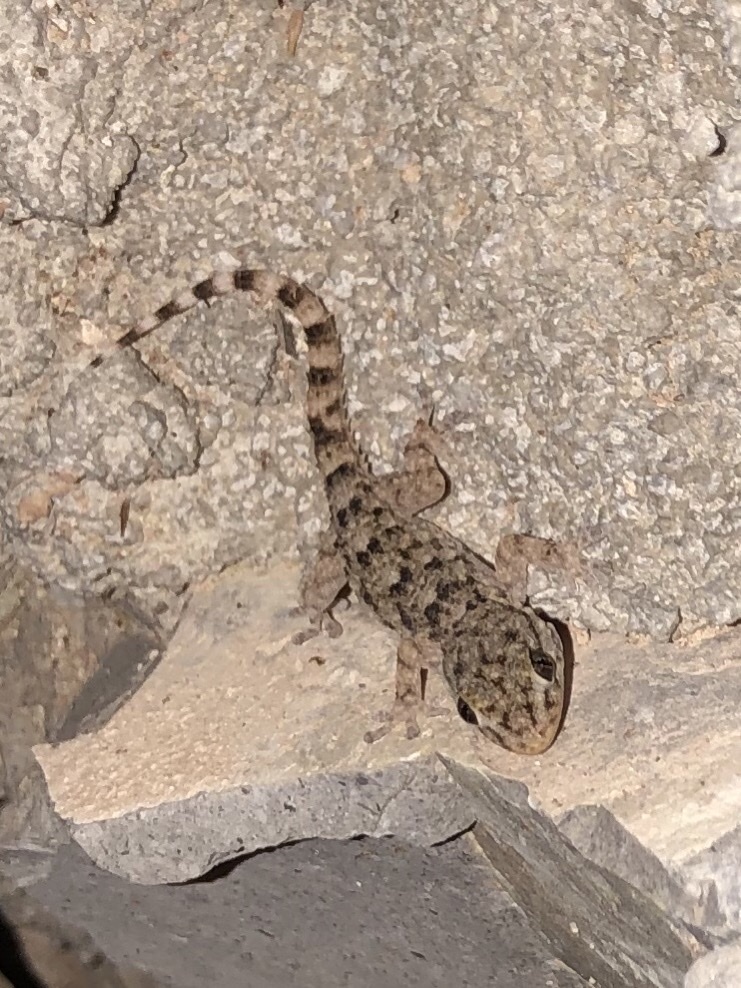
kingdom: Animalia
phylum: Chordata
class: Squamata
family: Phyllodactylidae
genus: Tarentola
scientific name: Tarentola mauritanica
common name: Moorish gecko
